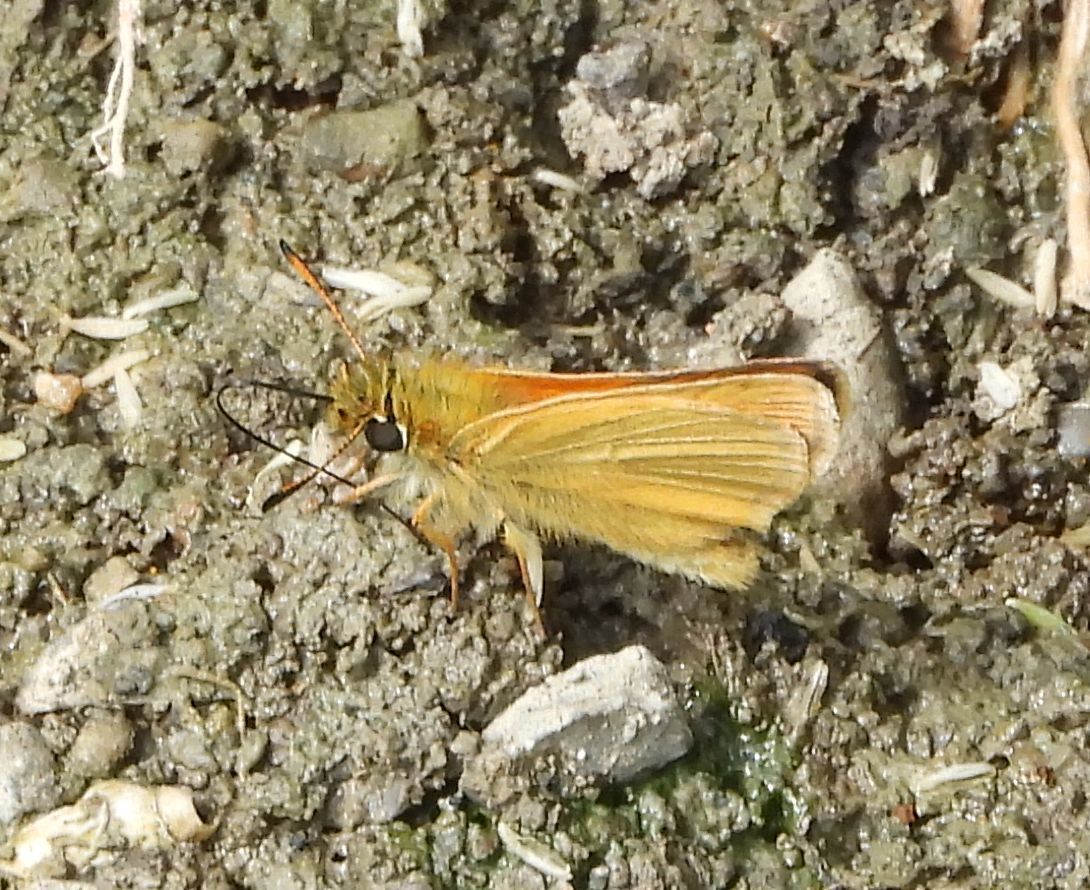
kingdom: Animalia
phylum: Arthropoda
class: Insecta
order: Lepidoptera
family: Hesperiidae
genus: Thymelicus
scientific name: Thymelicus lineola
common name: Essex skipper
